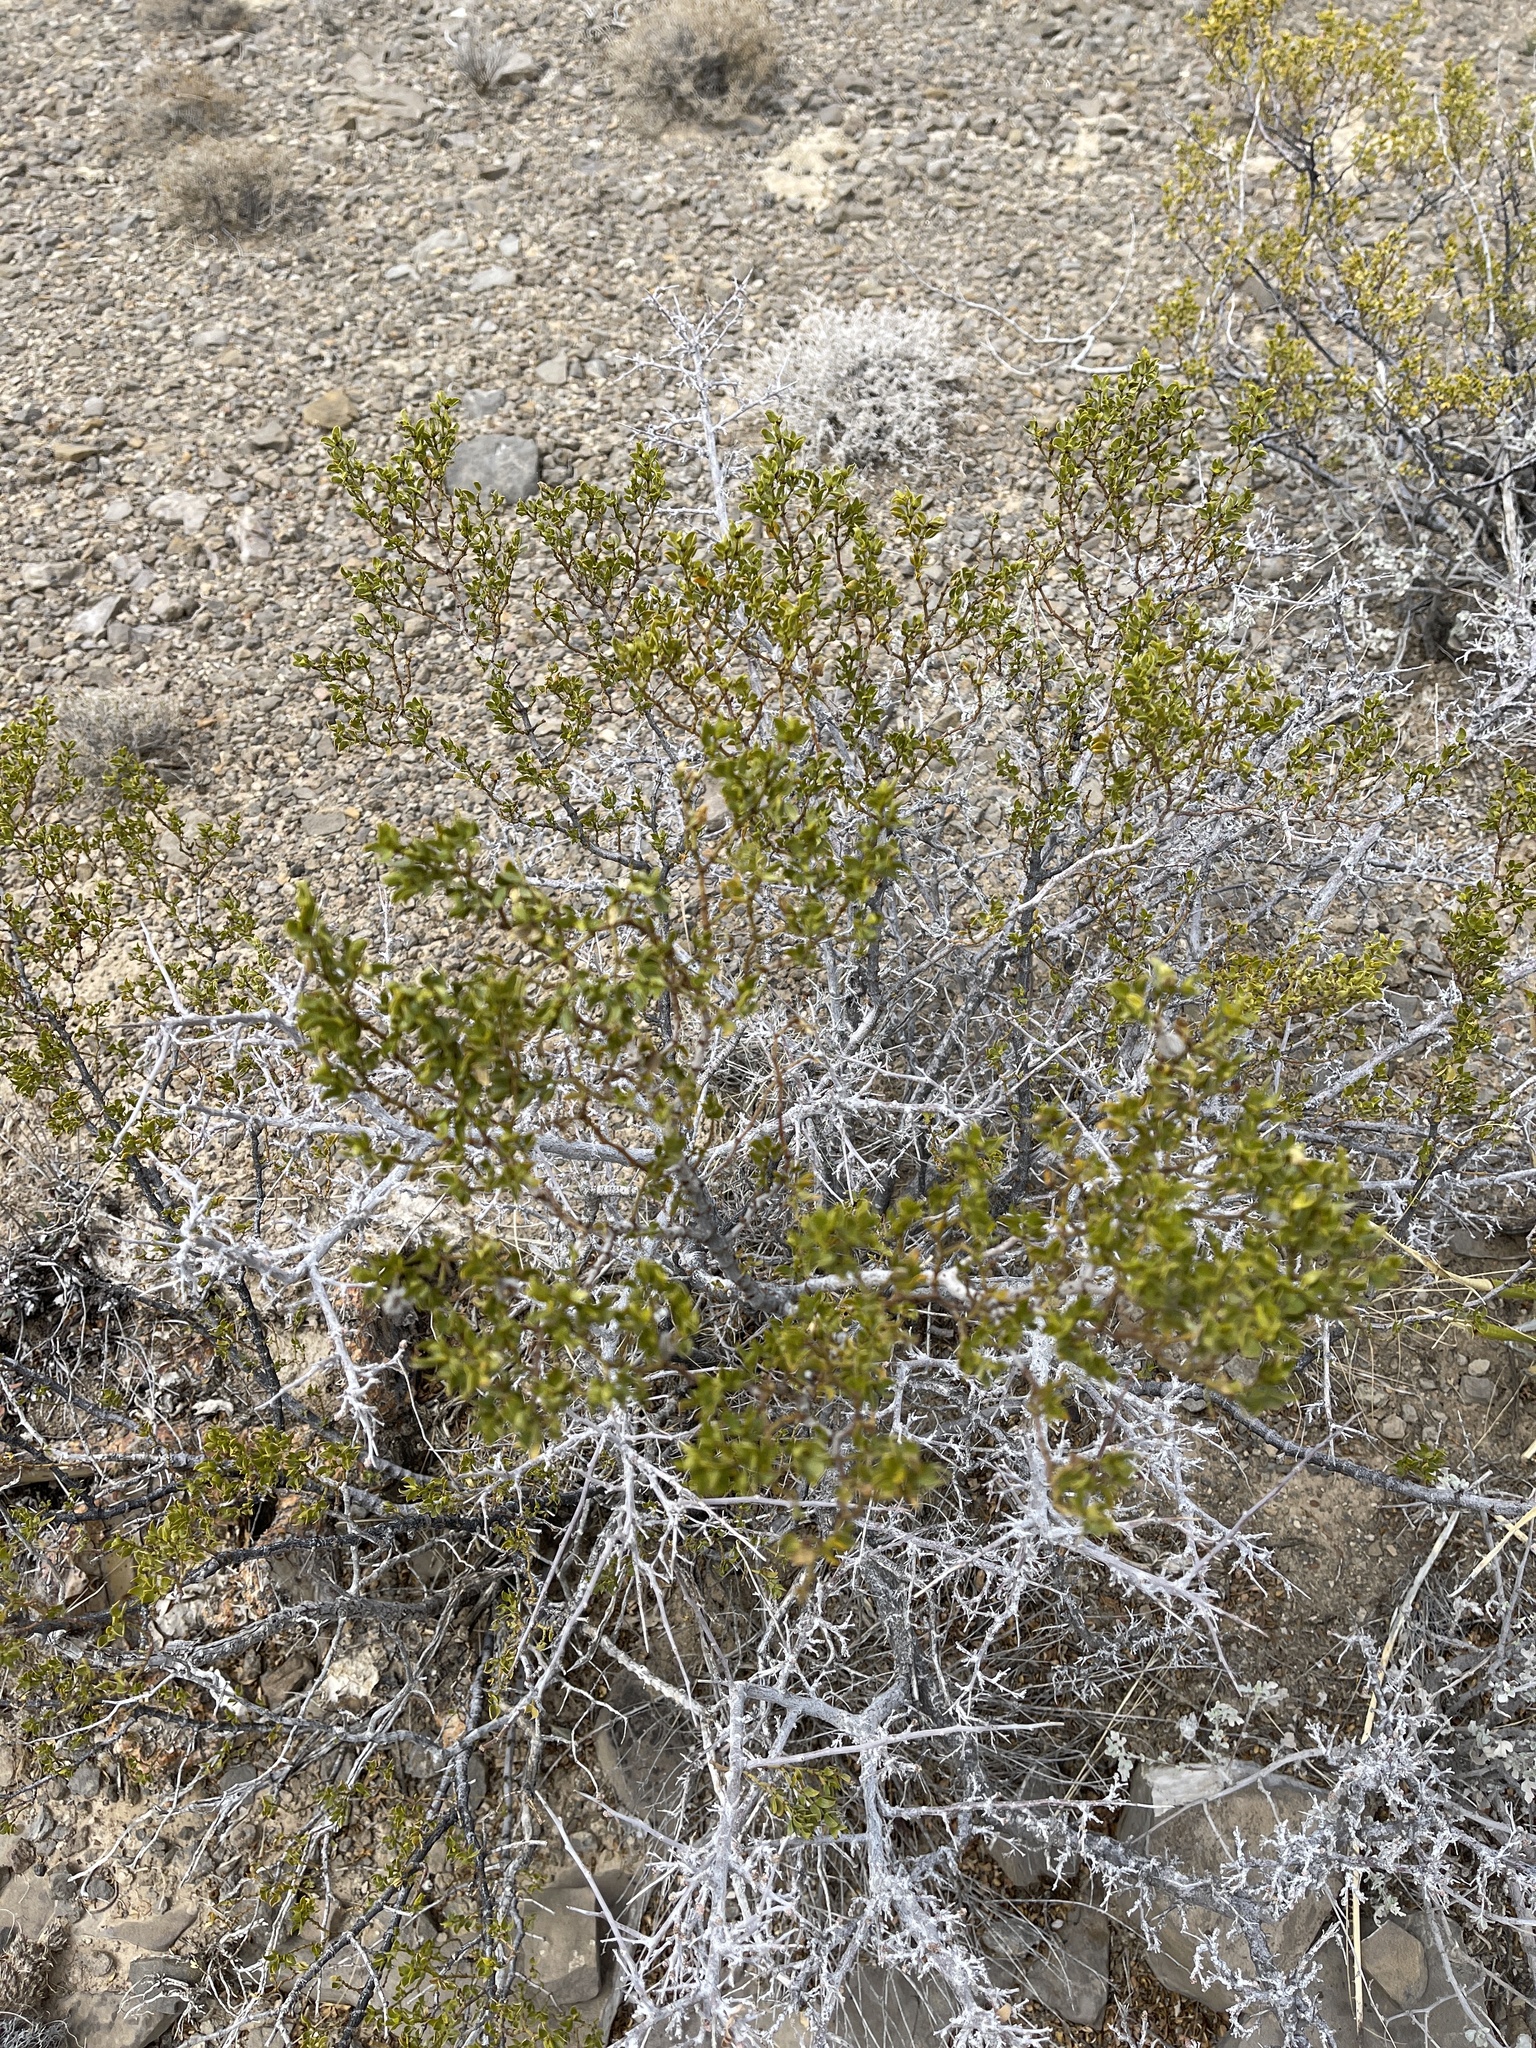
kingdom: Plantae
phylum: Tracheophyta
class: Magnoliopsida
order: Zygophyllales
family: Zygophyllaceae
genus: Larrea
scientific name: Larrea tridentata
